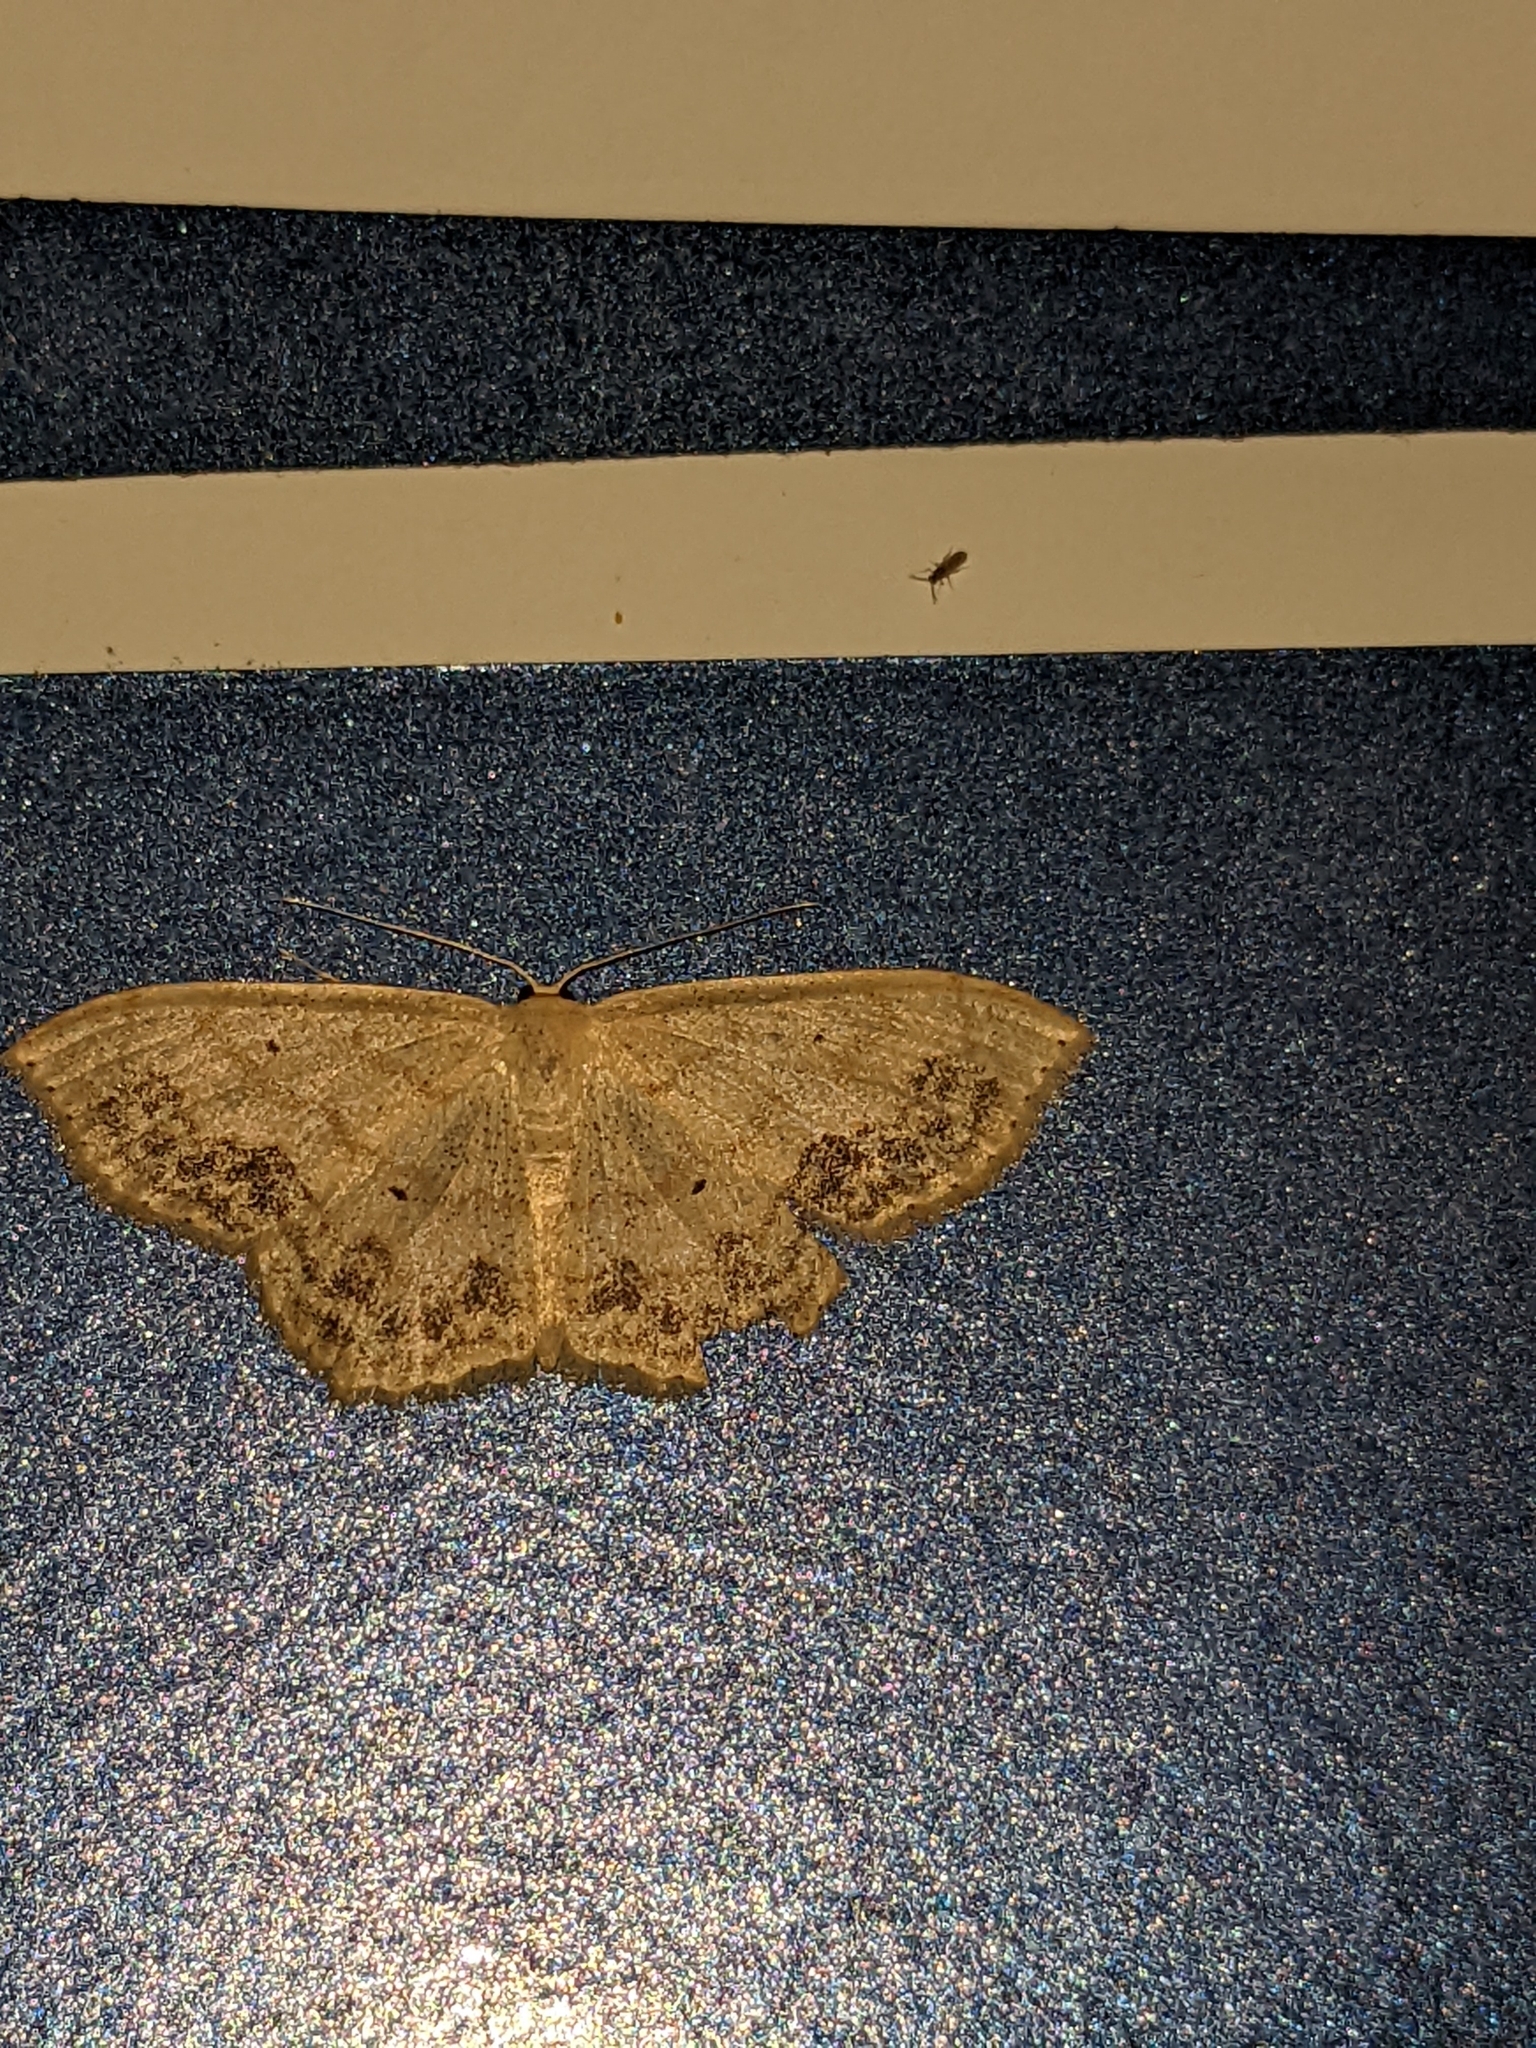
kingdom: Animalia
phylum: Arthropoda
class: Insecta
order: Lepidoptera
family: Geometridae
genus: Scopula
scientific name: Scopula limboundata
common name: Large lace border
